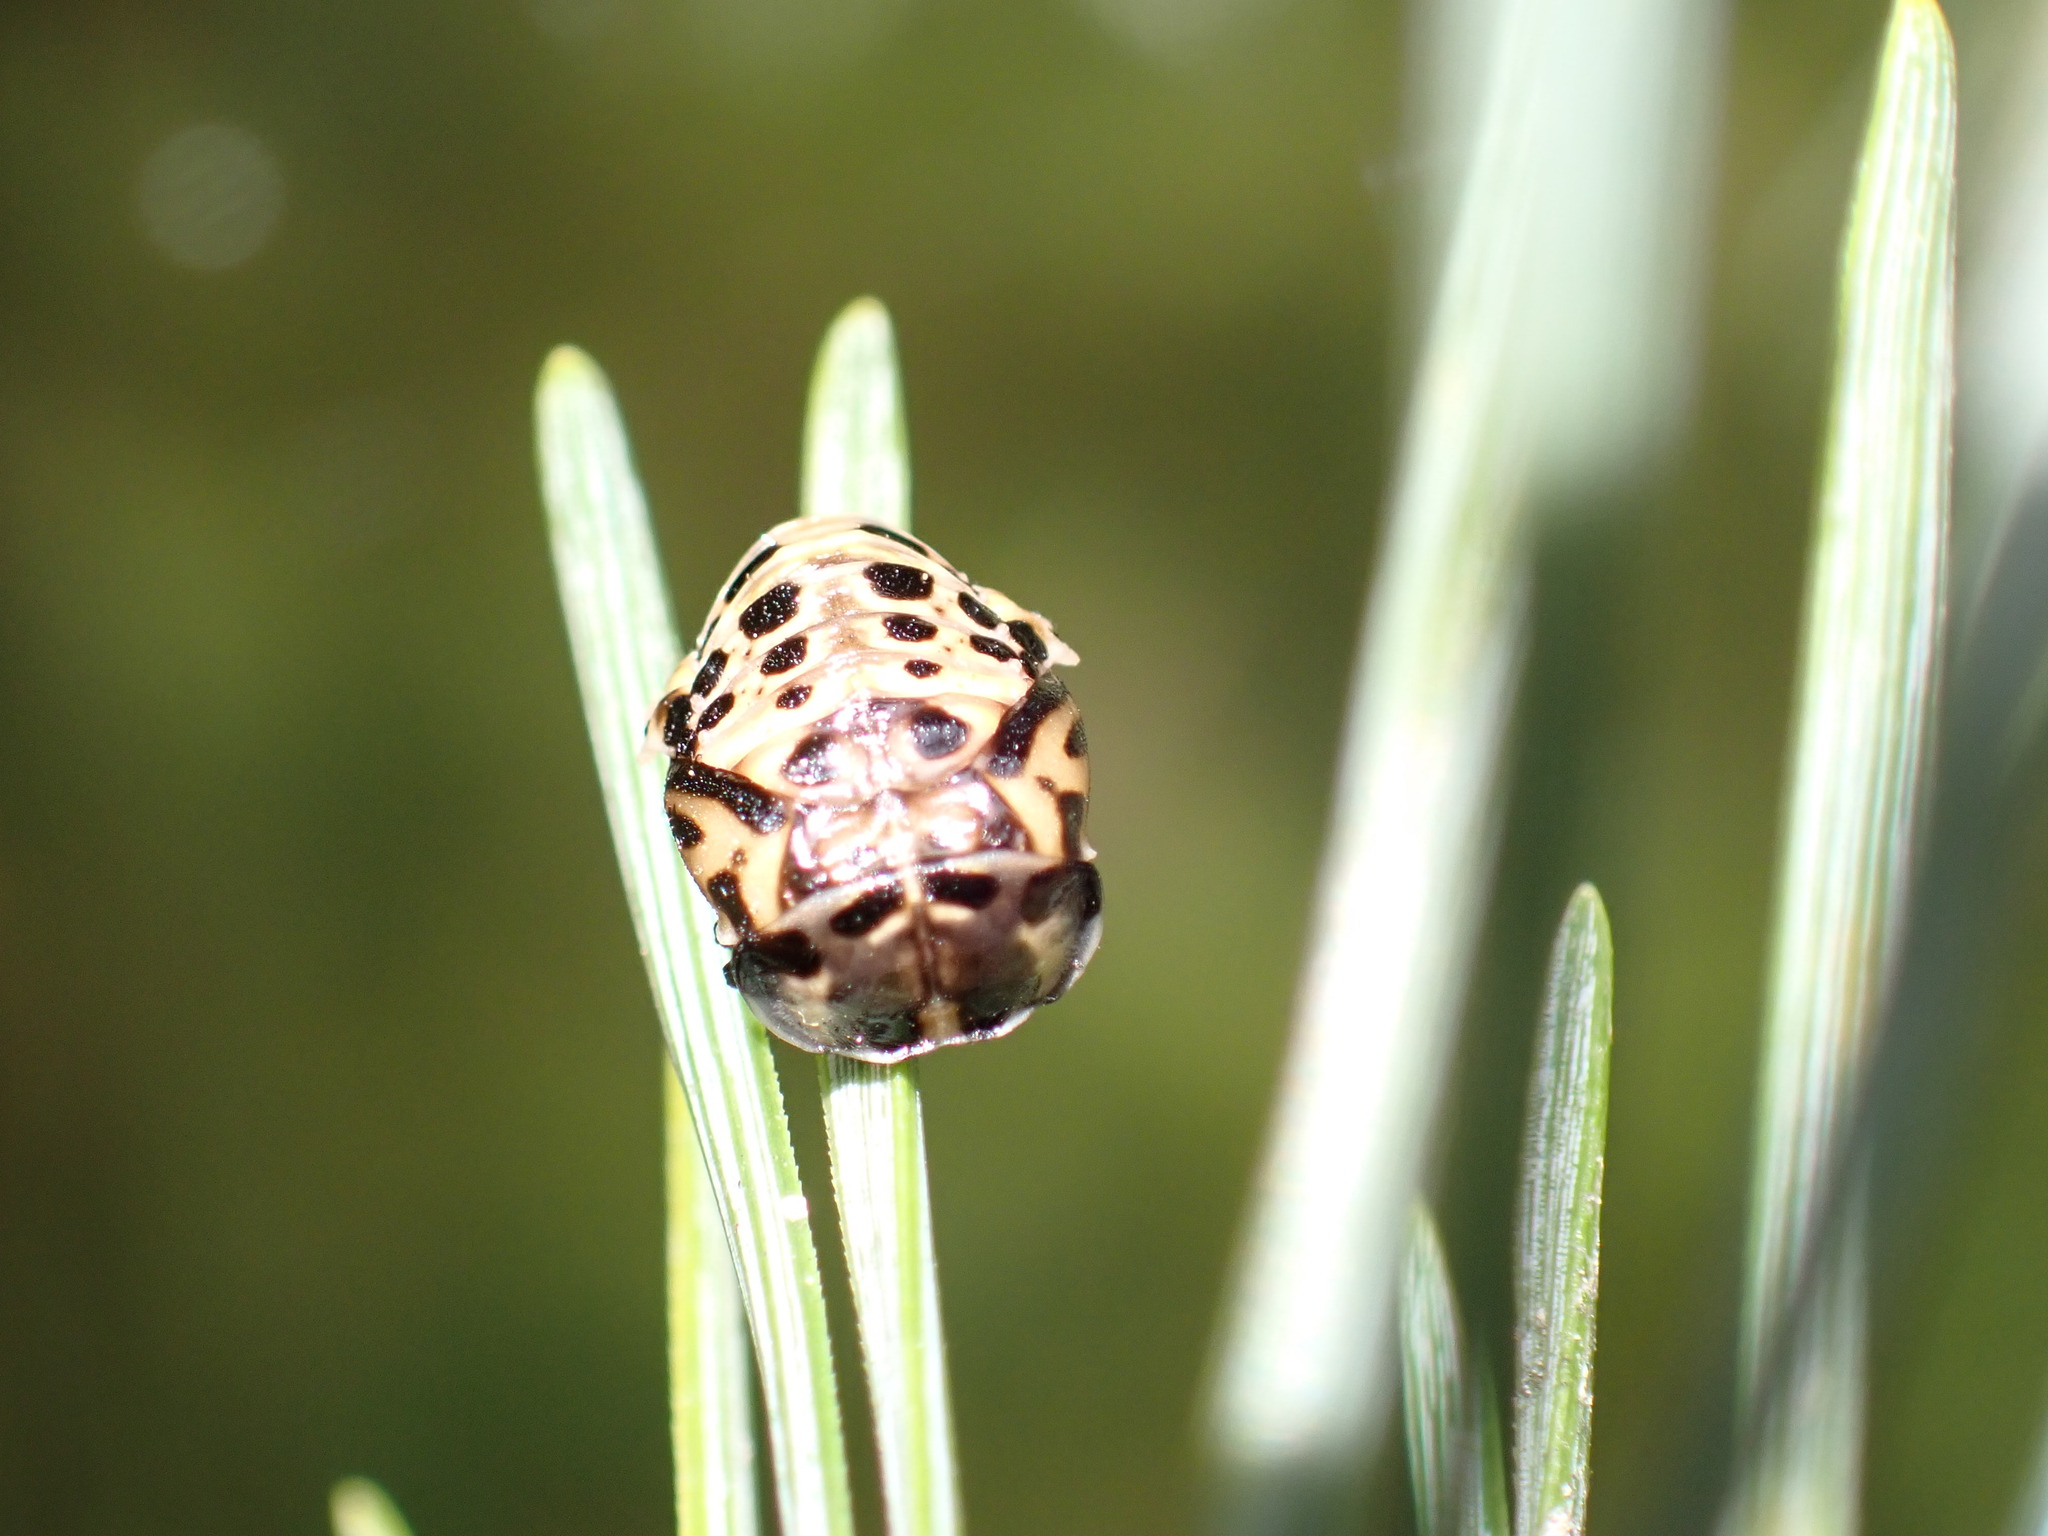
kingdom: Animalia
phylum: Arthropoda
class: Insecta
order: Coleoptera
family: Coccinellidae
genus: Anatis
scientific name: Anatis ocellata
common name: Eyed ladybird
